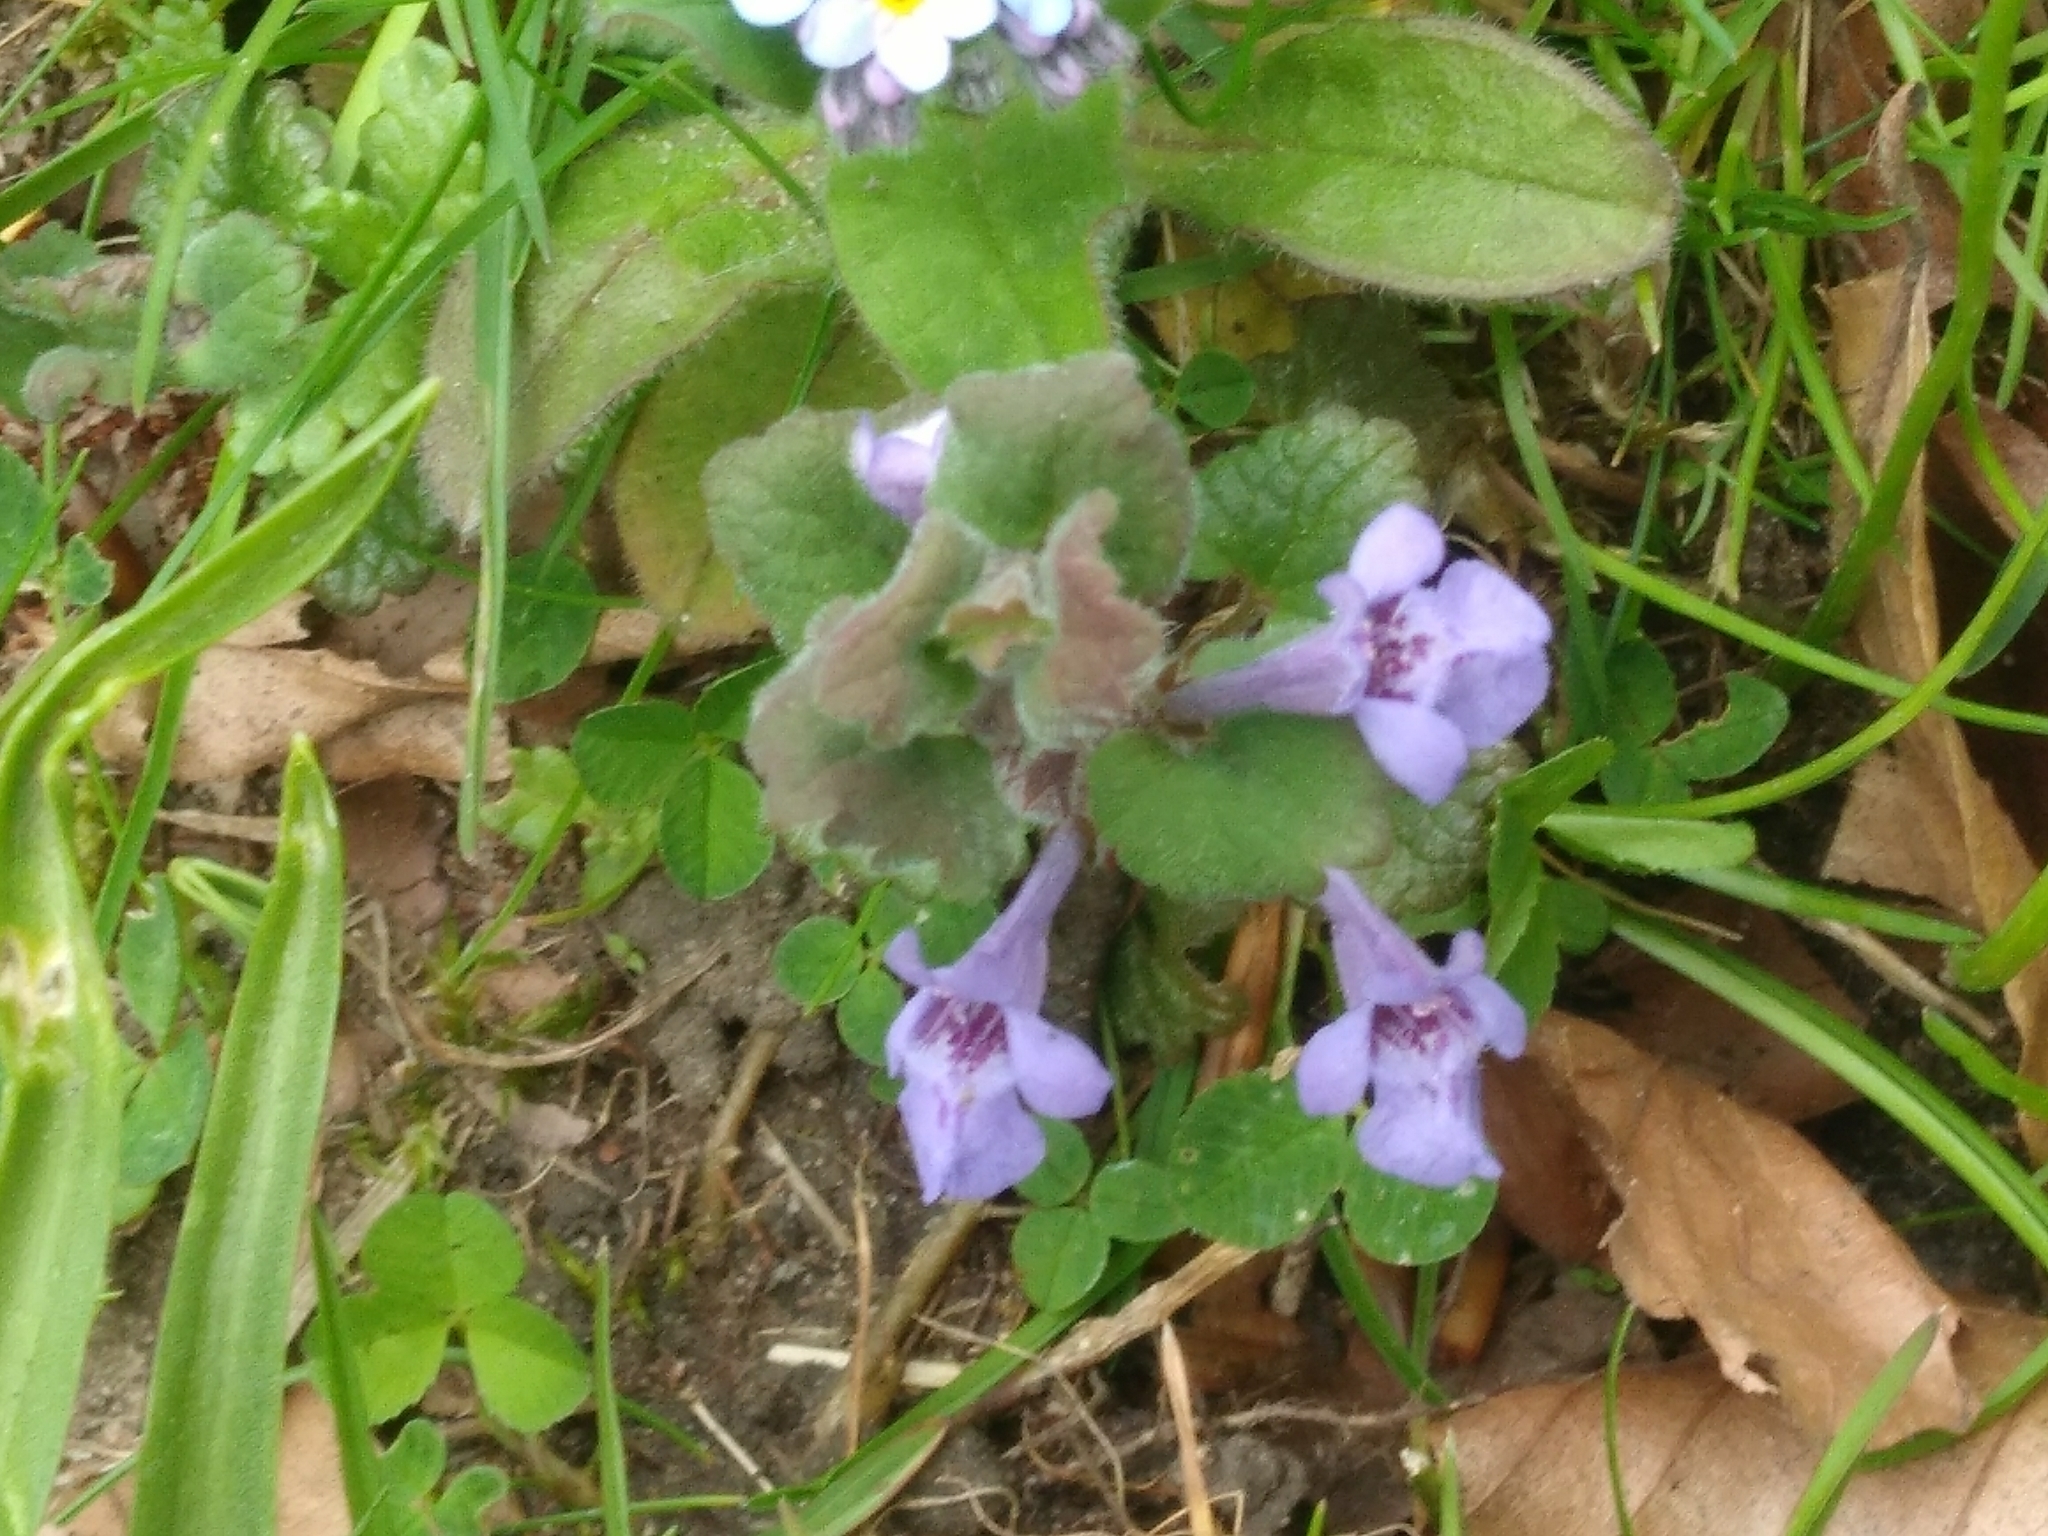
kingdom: Plantae
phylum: Tracheophyta
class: Magnoliopsida
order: Lamiales
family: Lamiaceae
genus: Glechoma
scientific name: Glechoma hederacea
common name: Ground ivy
